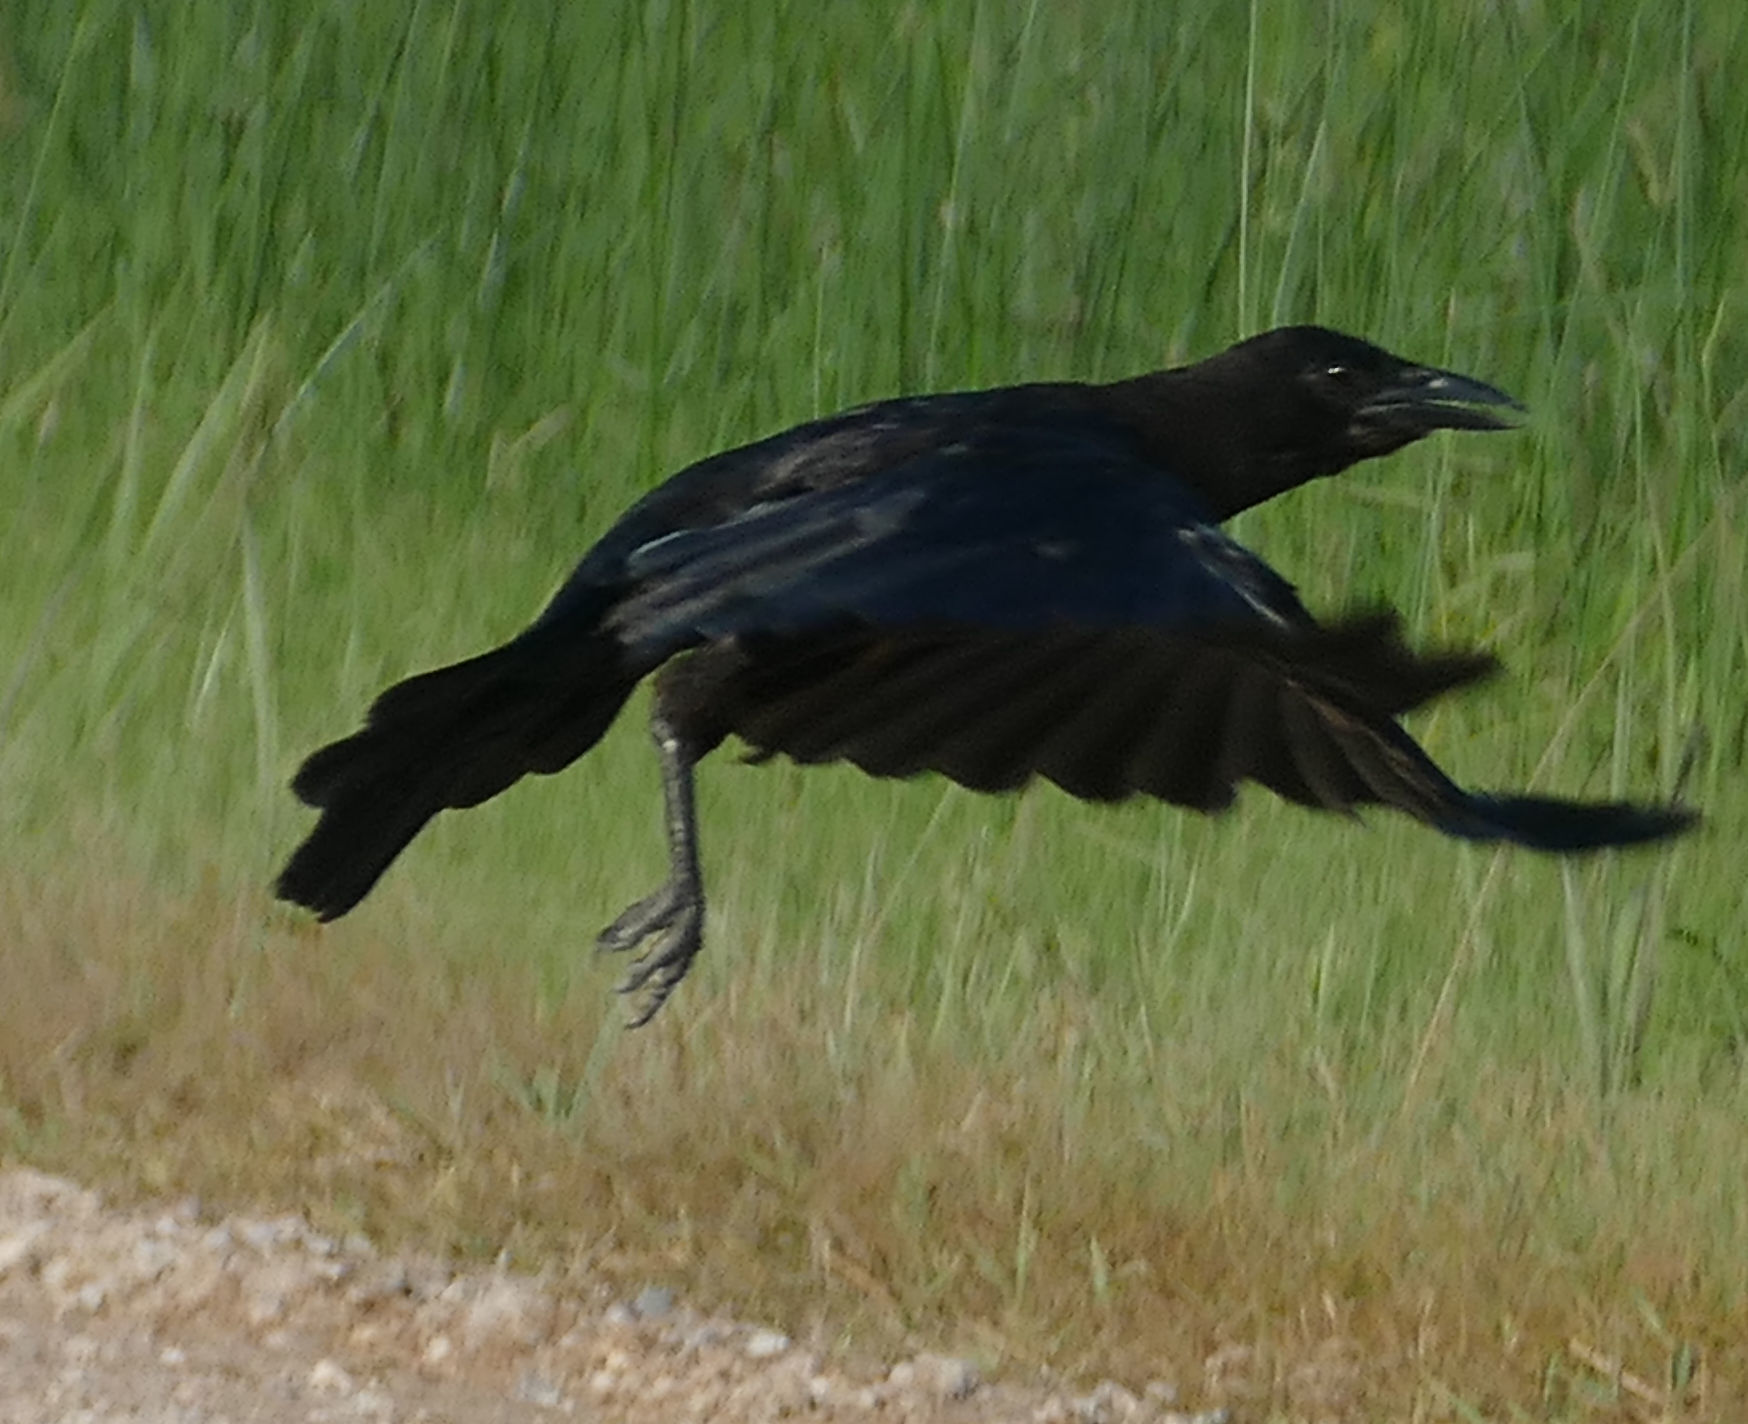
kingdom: Animalia
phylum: Chordata
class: Aves
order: Passeriformes
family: Corvidae
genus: Corvus
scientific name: Corvus brachyrhynchos
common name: American crow
